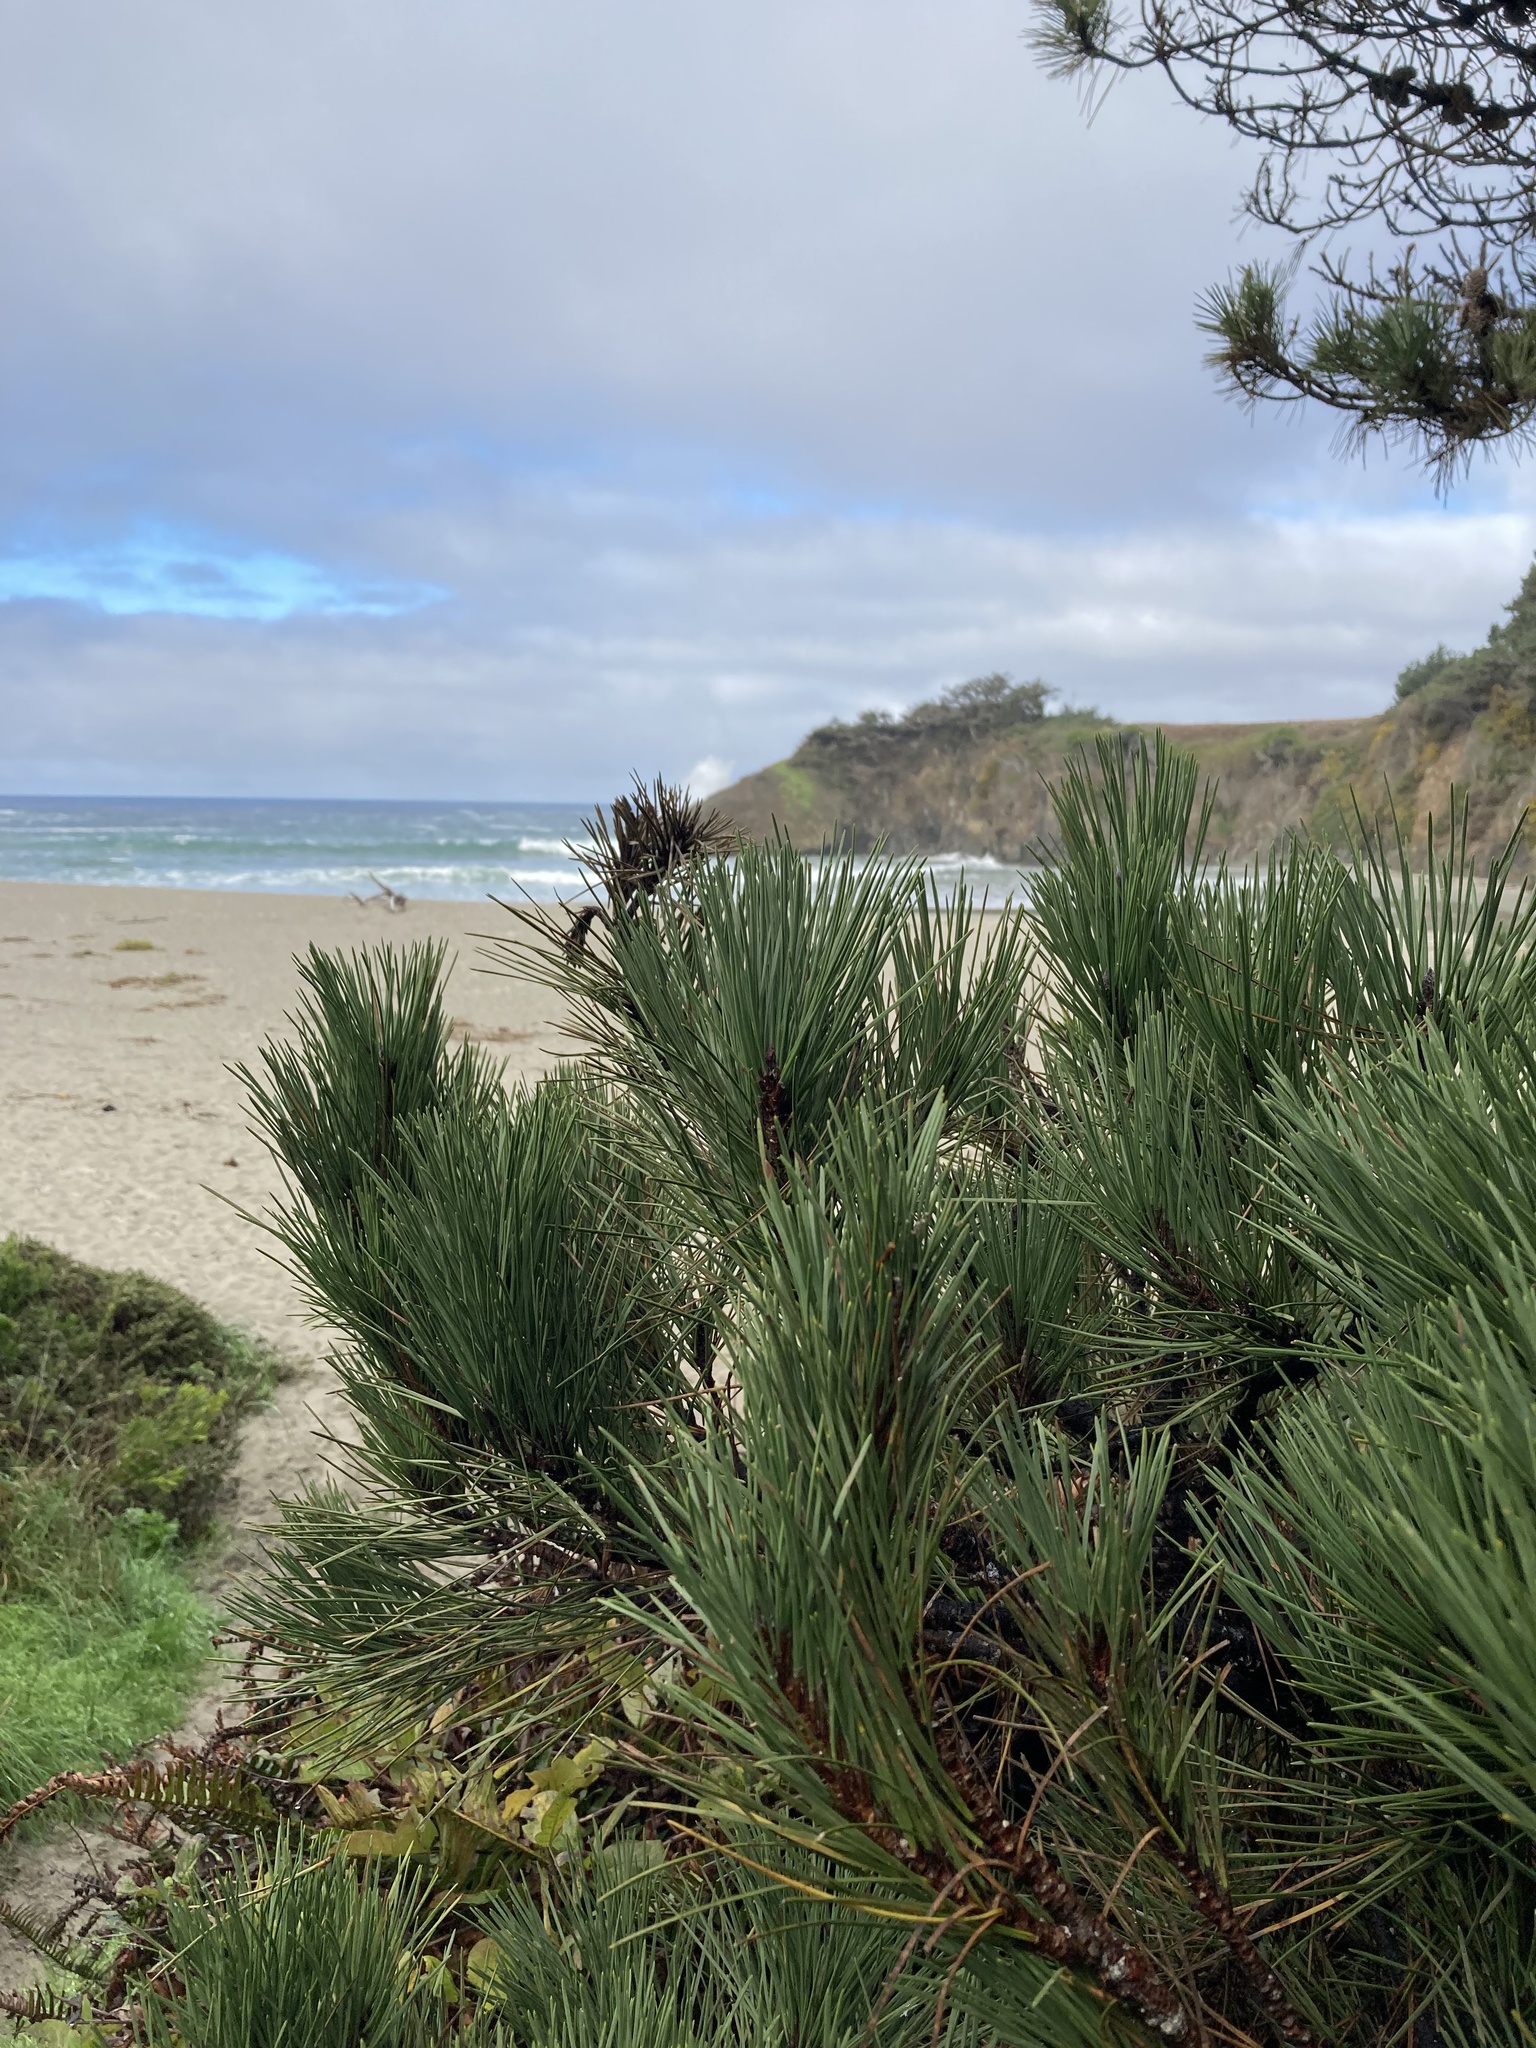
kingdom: Plantae
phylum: Tracheophyta
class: Pinopsida
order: Pinales
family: Pinaceae
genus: Pinus
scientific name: Pinus muricata
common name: Bishop pine
